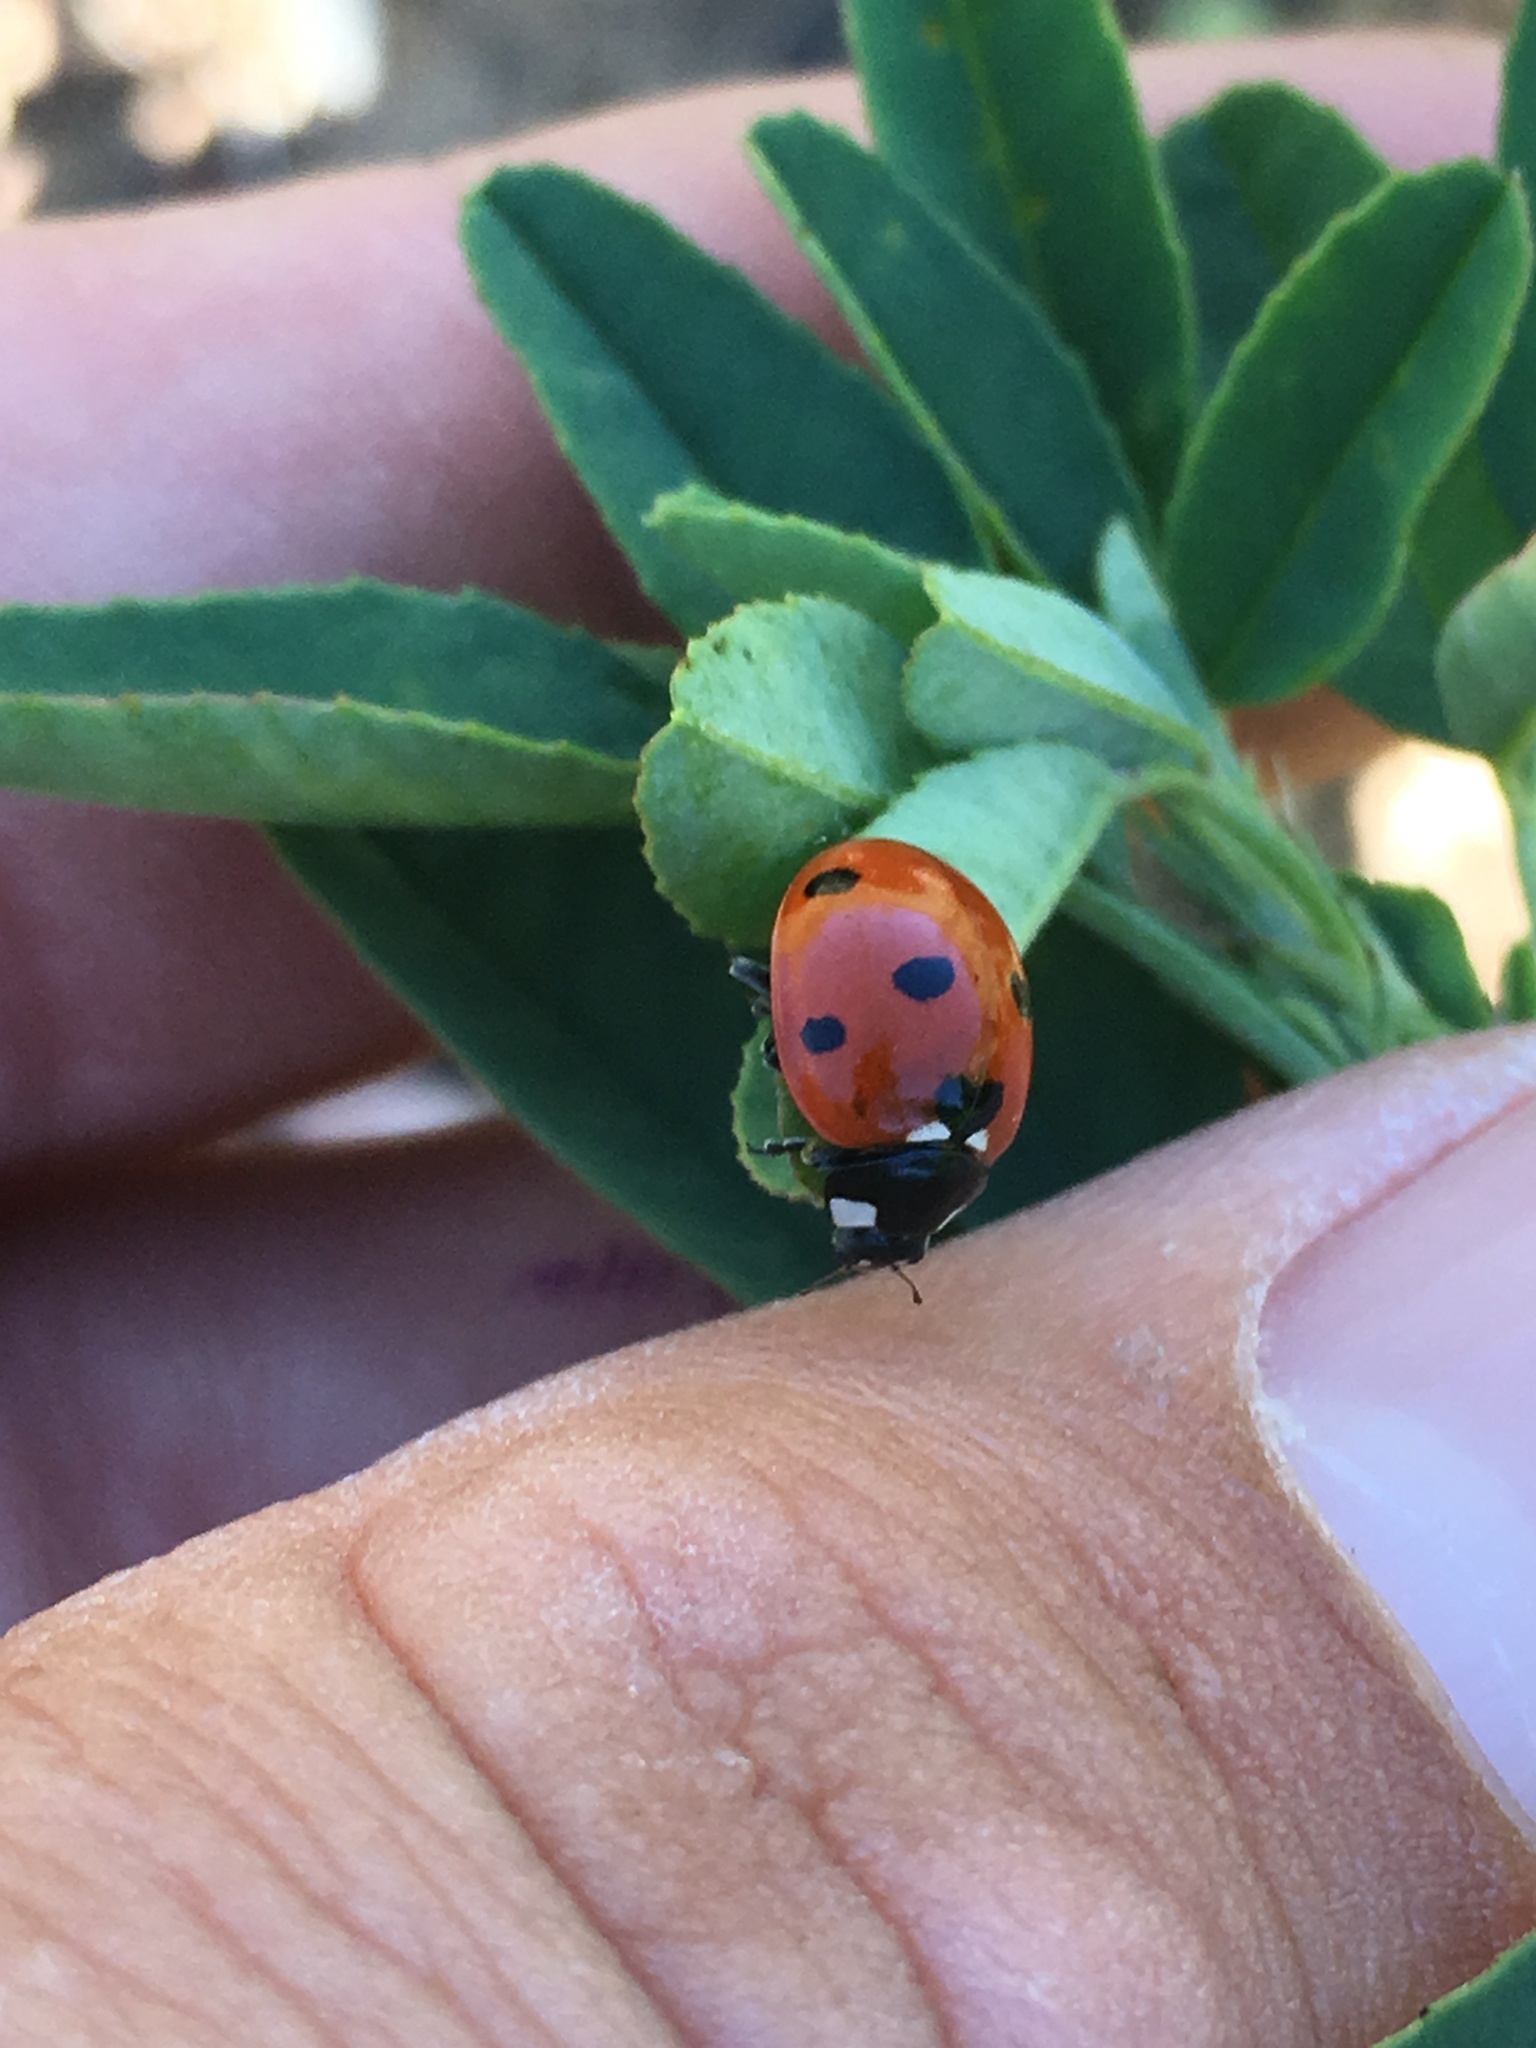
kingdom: Animalia
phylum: Arthropoda
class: Insecta
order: Coleoptera
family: Coccinellidae
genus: Coccinella
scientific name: Coccinella septempunctata
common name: Sevenspotted lady beetle
